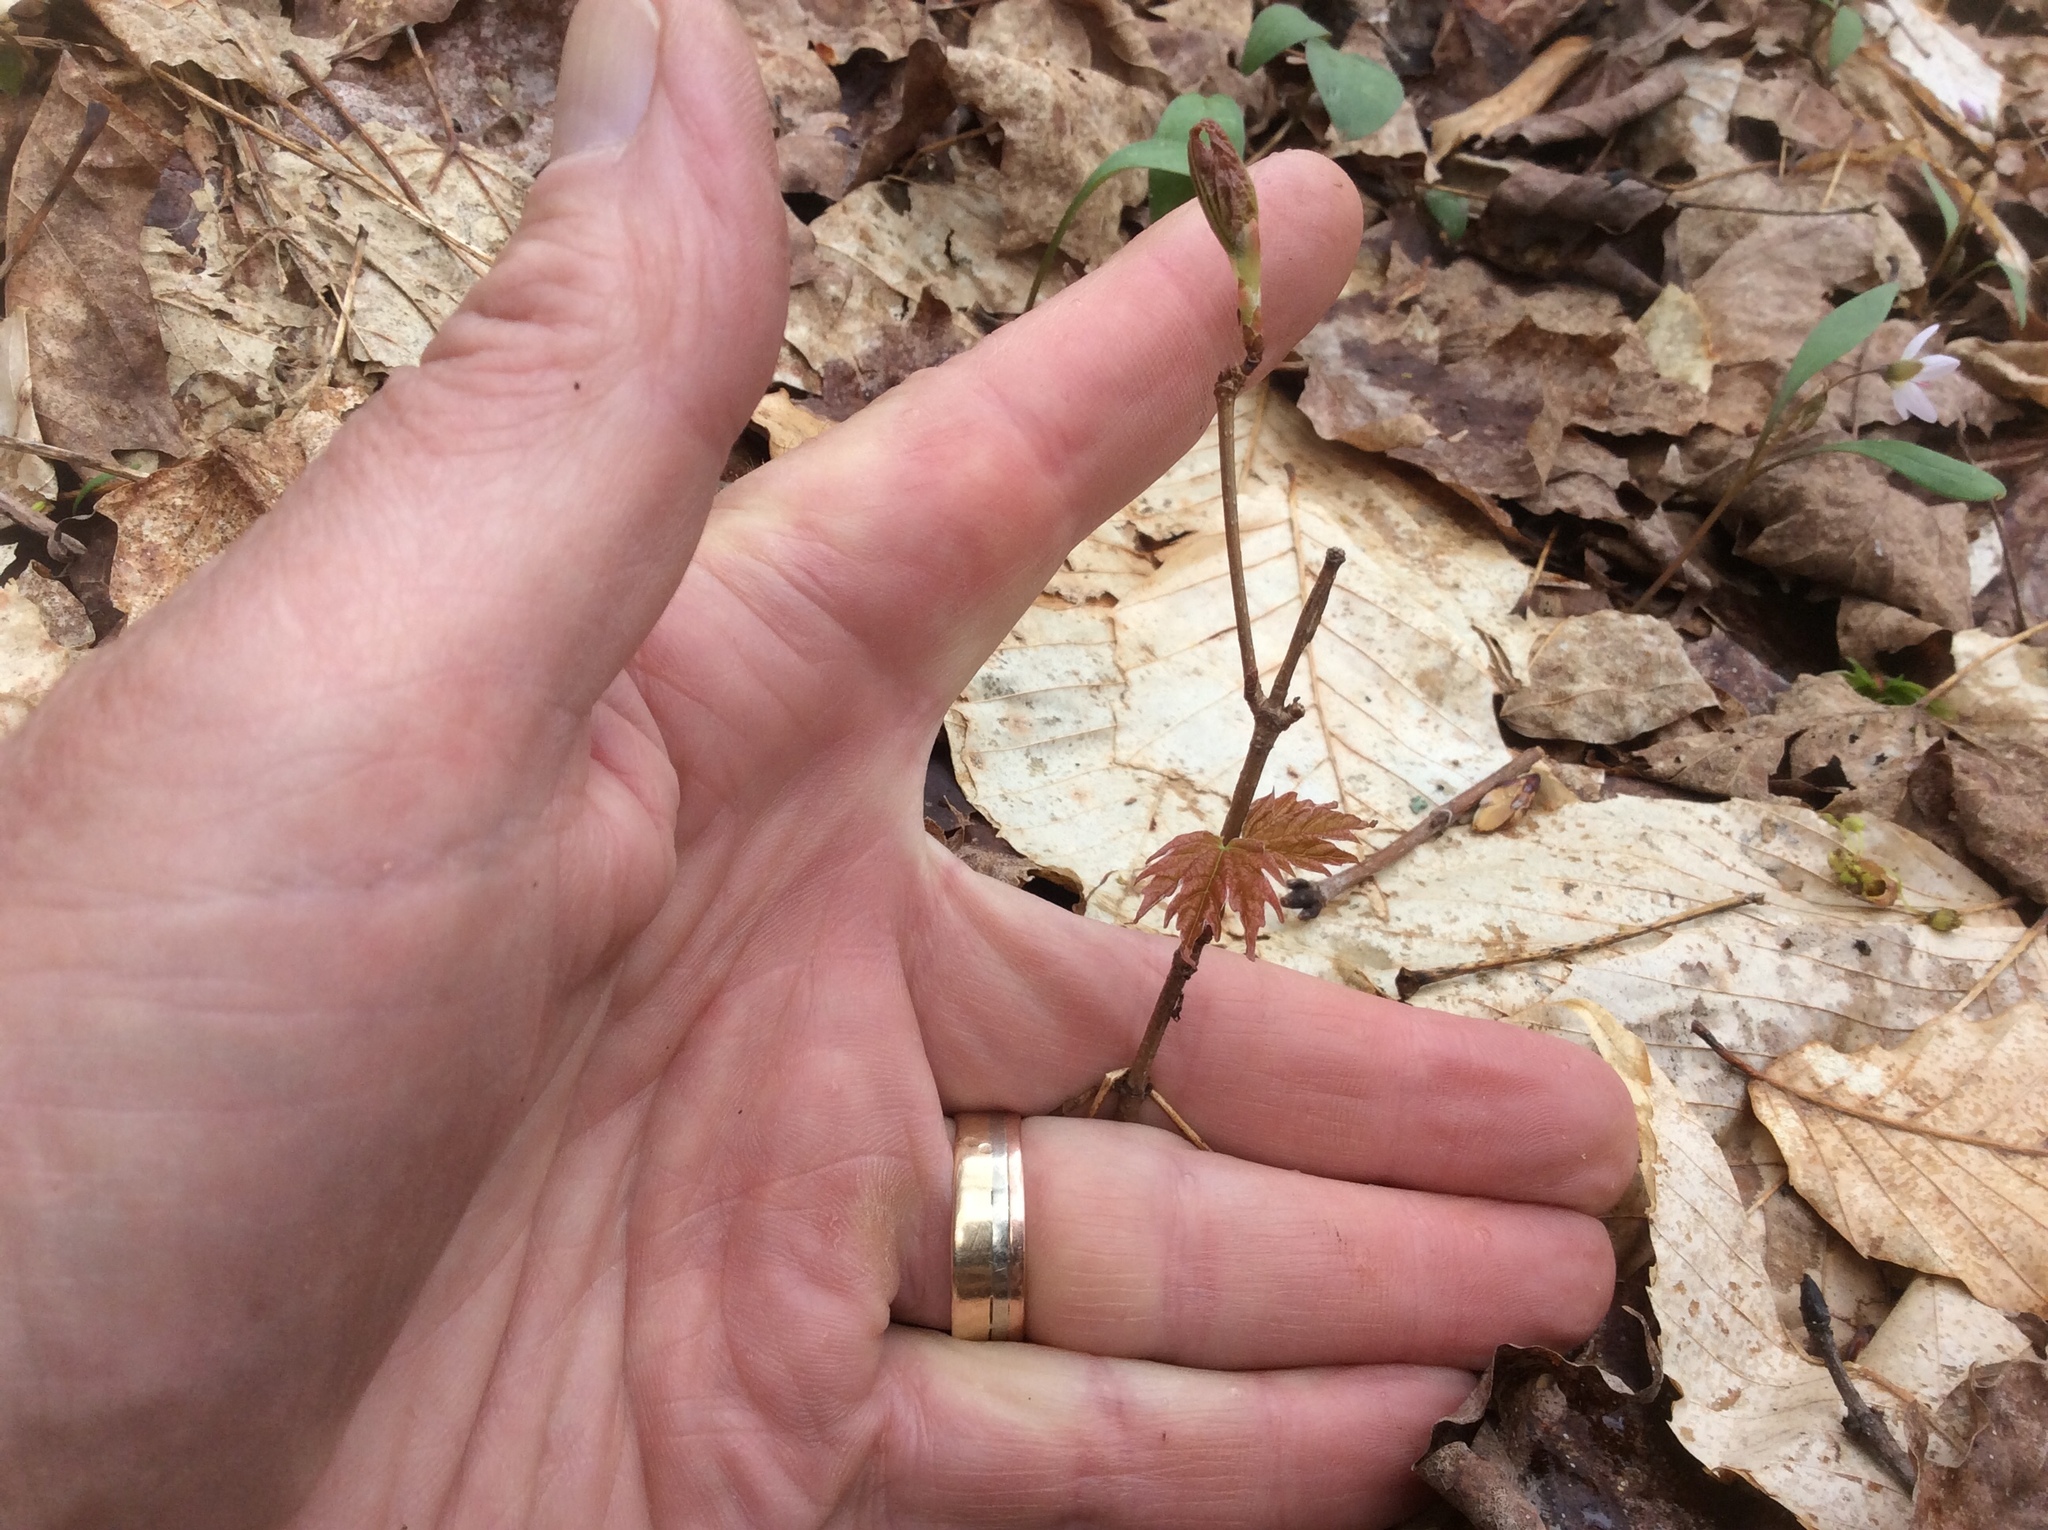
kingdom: Plantae
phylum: Tracheophyta
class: Magnoliopsida
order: Sapindales
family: Sapindaceae
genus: Acer
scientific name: Acer saccharum
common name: Sugar maple
